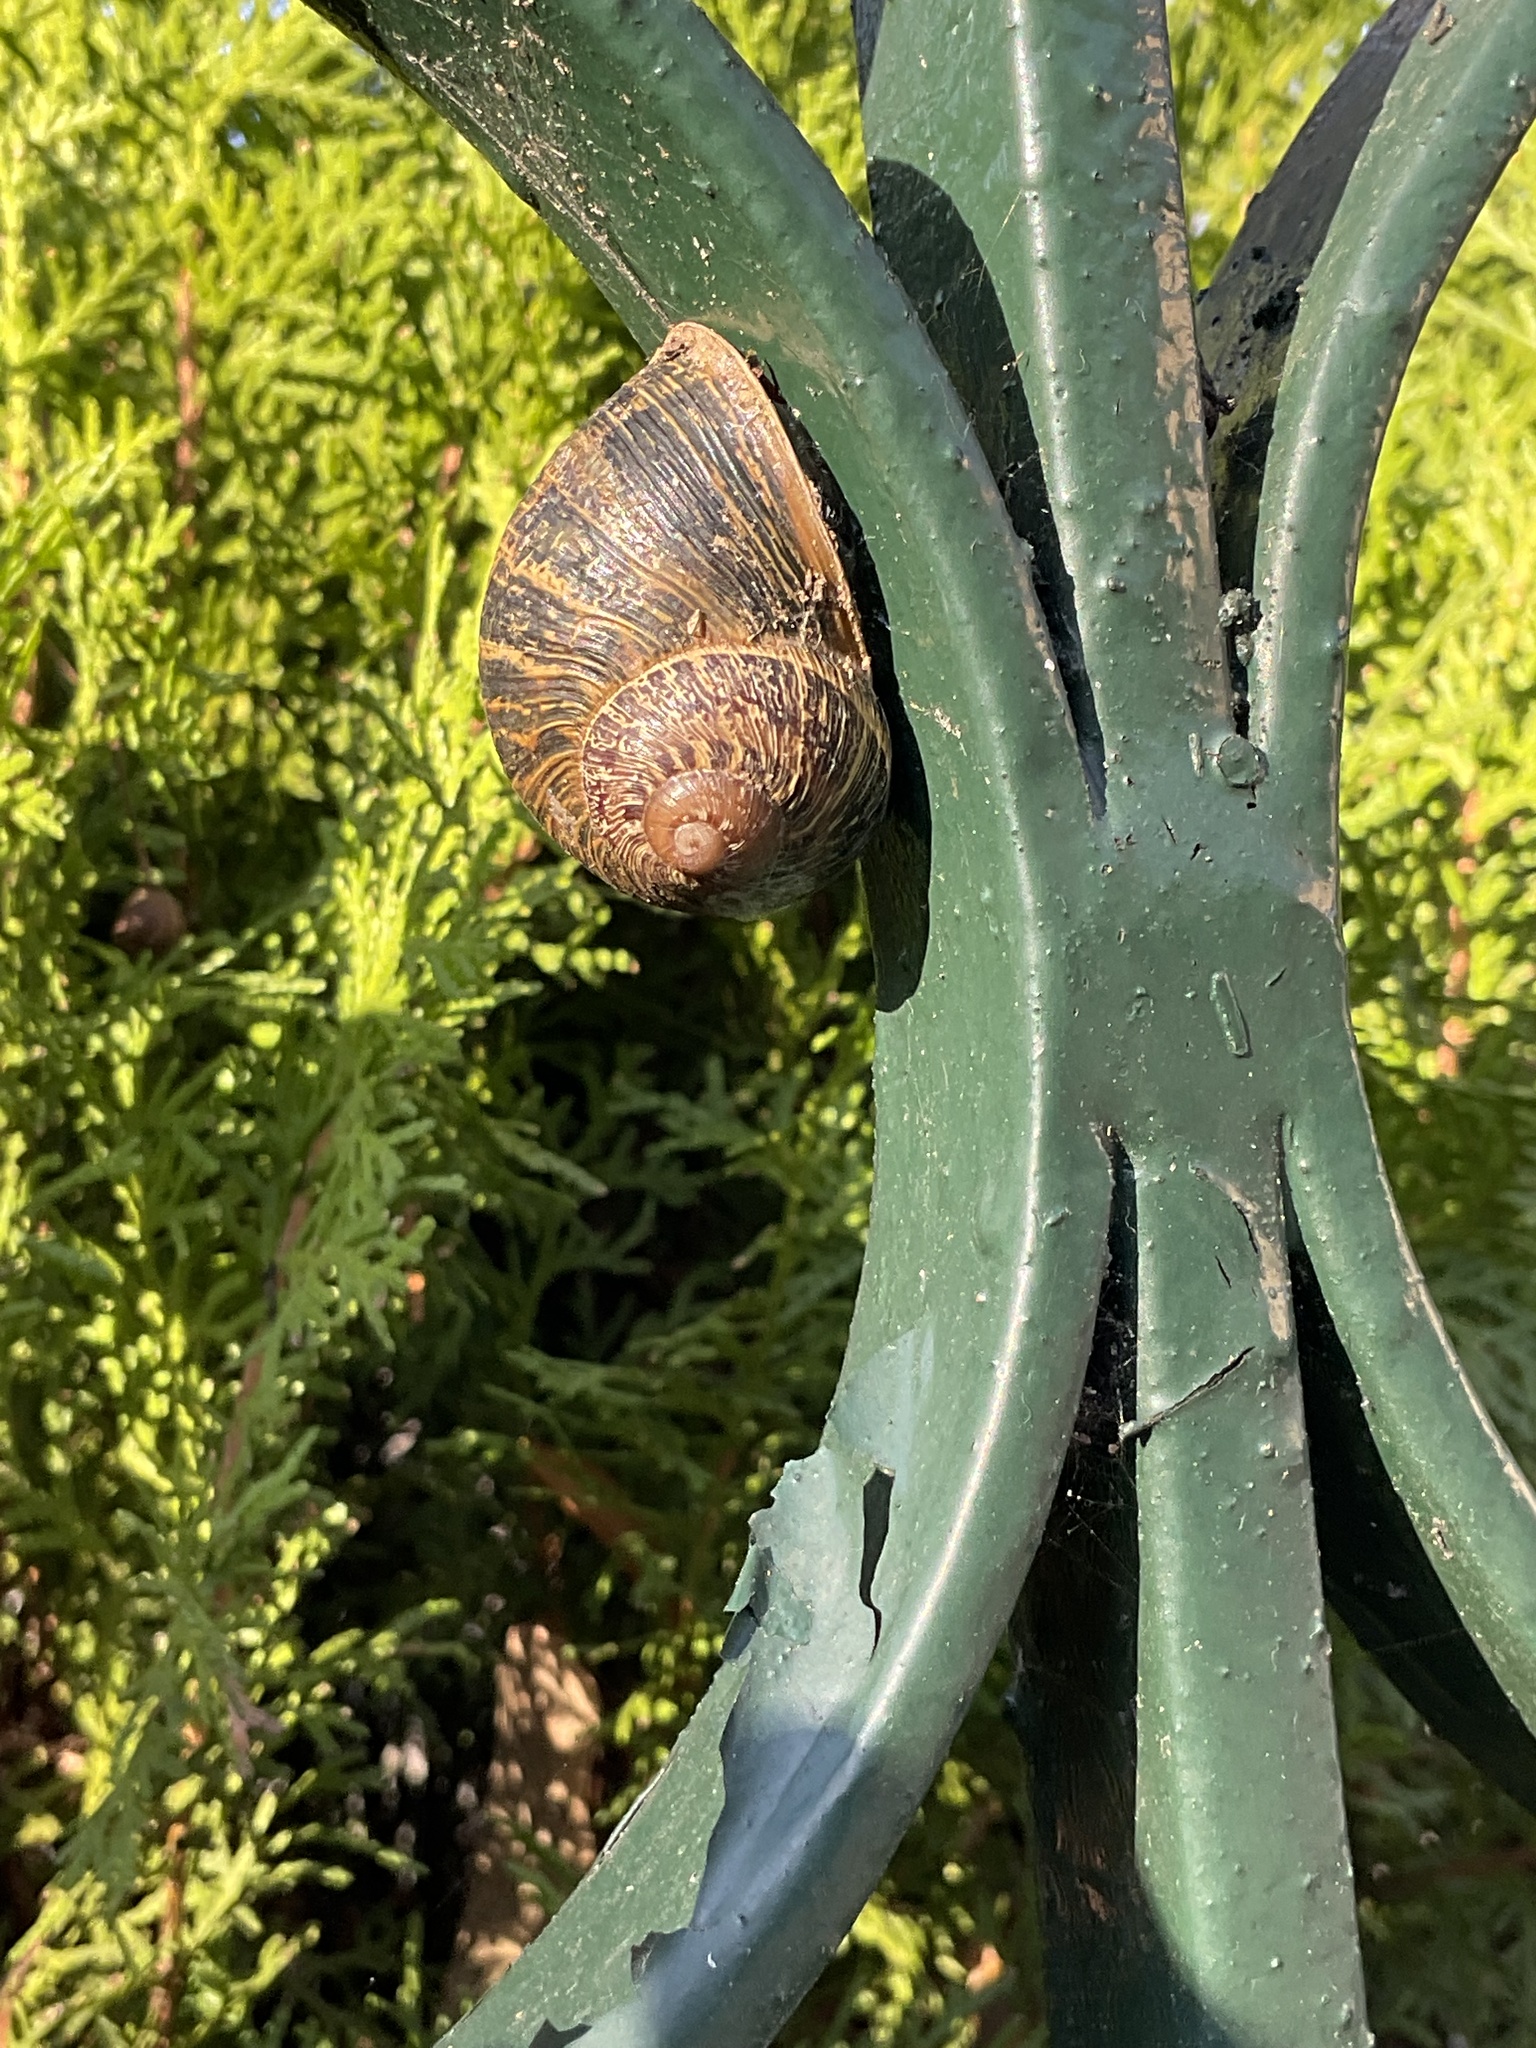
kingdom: Animalia
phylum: Mollusca
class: Gastropoda
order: Stylommatophora
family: Helicidae
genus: Cornu
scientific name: Cornu aspersum
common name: Brown garden snail
